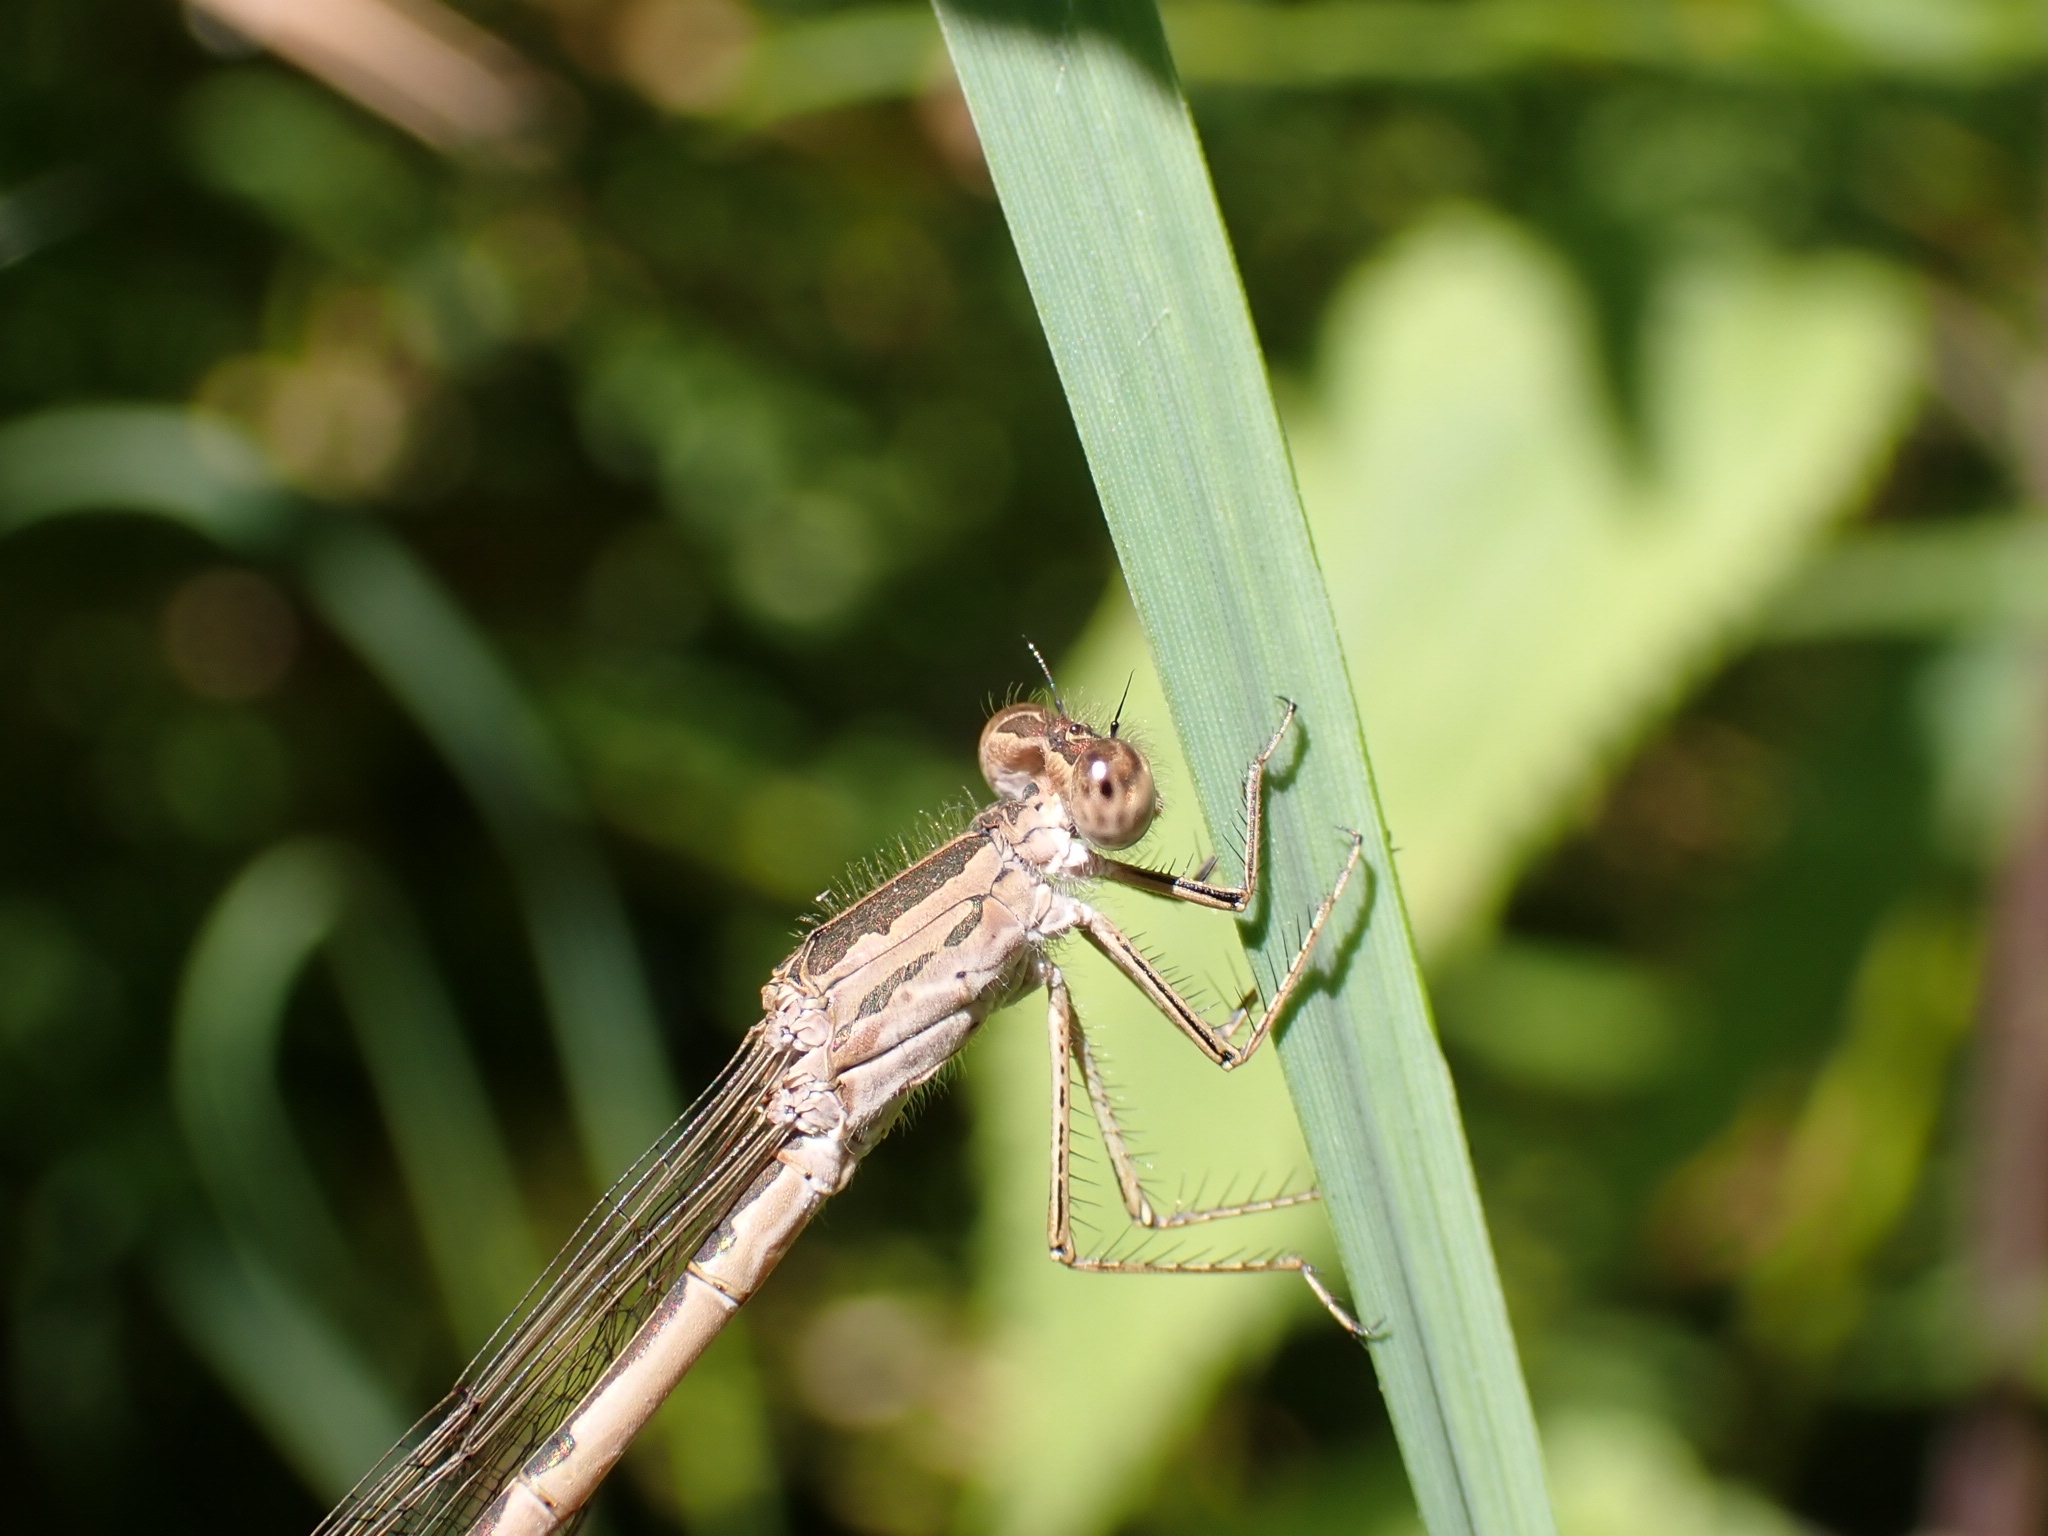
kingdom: Animalia
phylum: Arthropoda
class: Insecta
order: Odonata
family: Lestidae
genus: Sympecma
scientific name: Sympecma paedisca
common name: Siberian winter damsel
